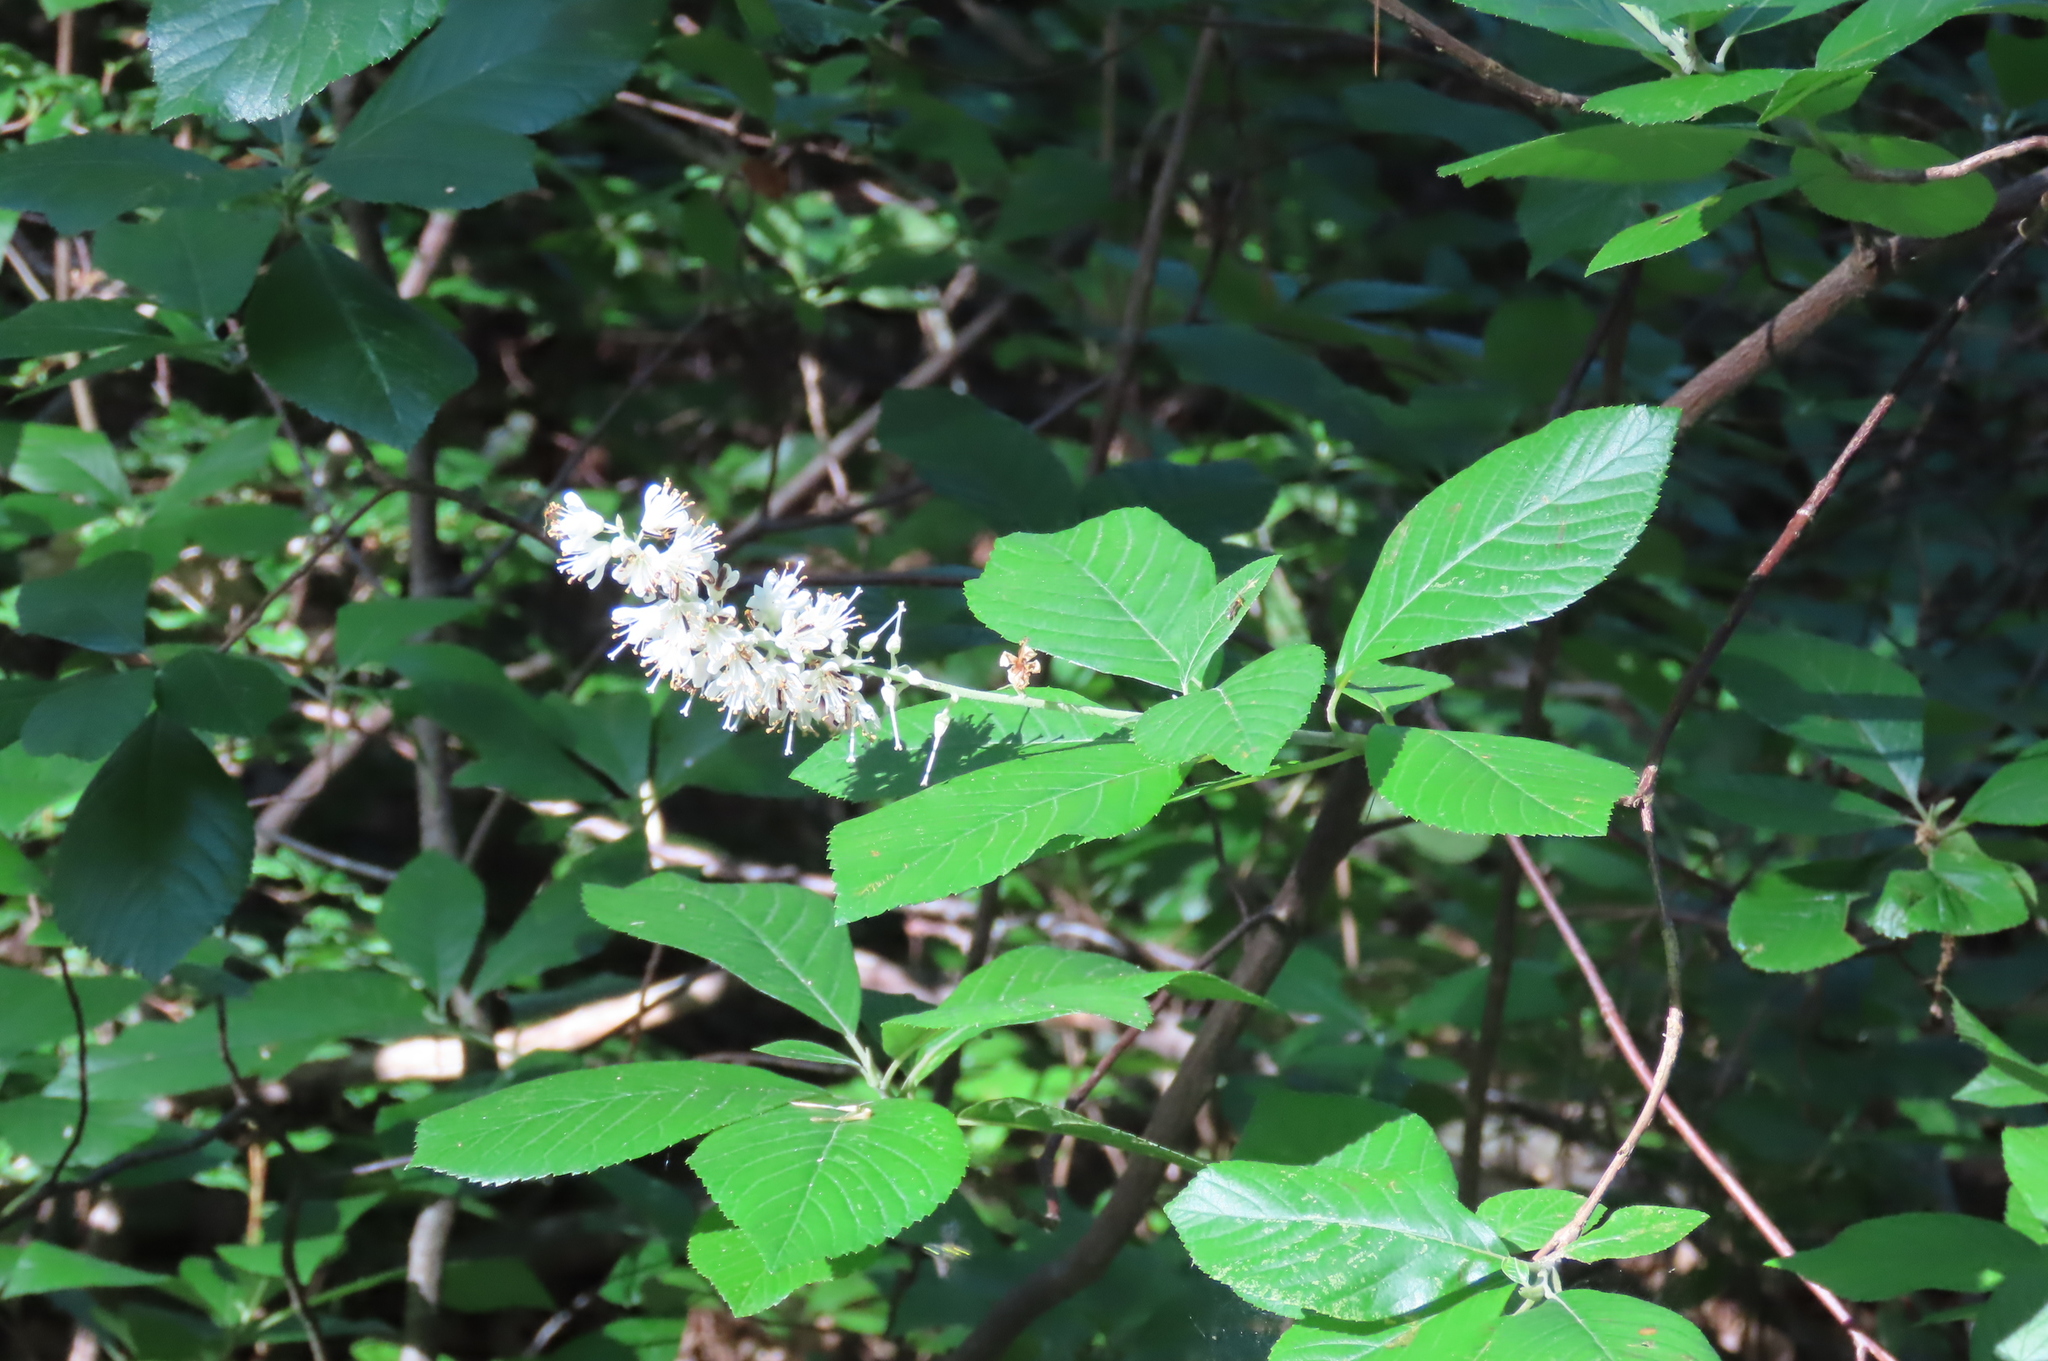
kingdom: Plantae
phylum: Tracheophyta
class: Magnoliopsida
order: Ericales
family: Clethraceae
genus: Clethra
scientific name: Clethra alnifolia
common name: Sweet pepperbush
